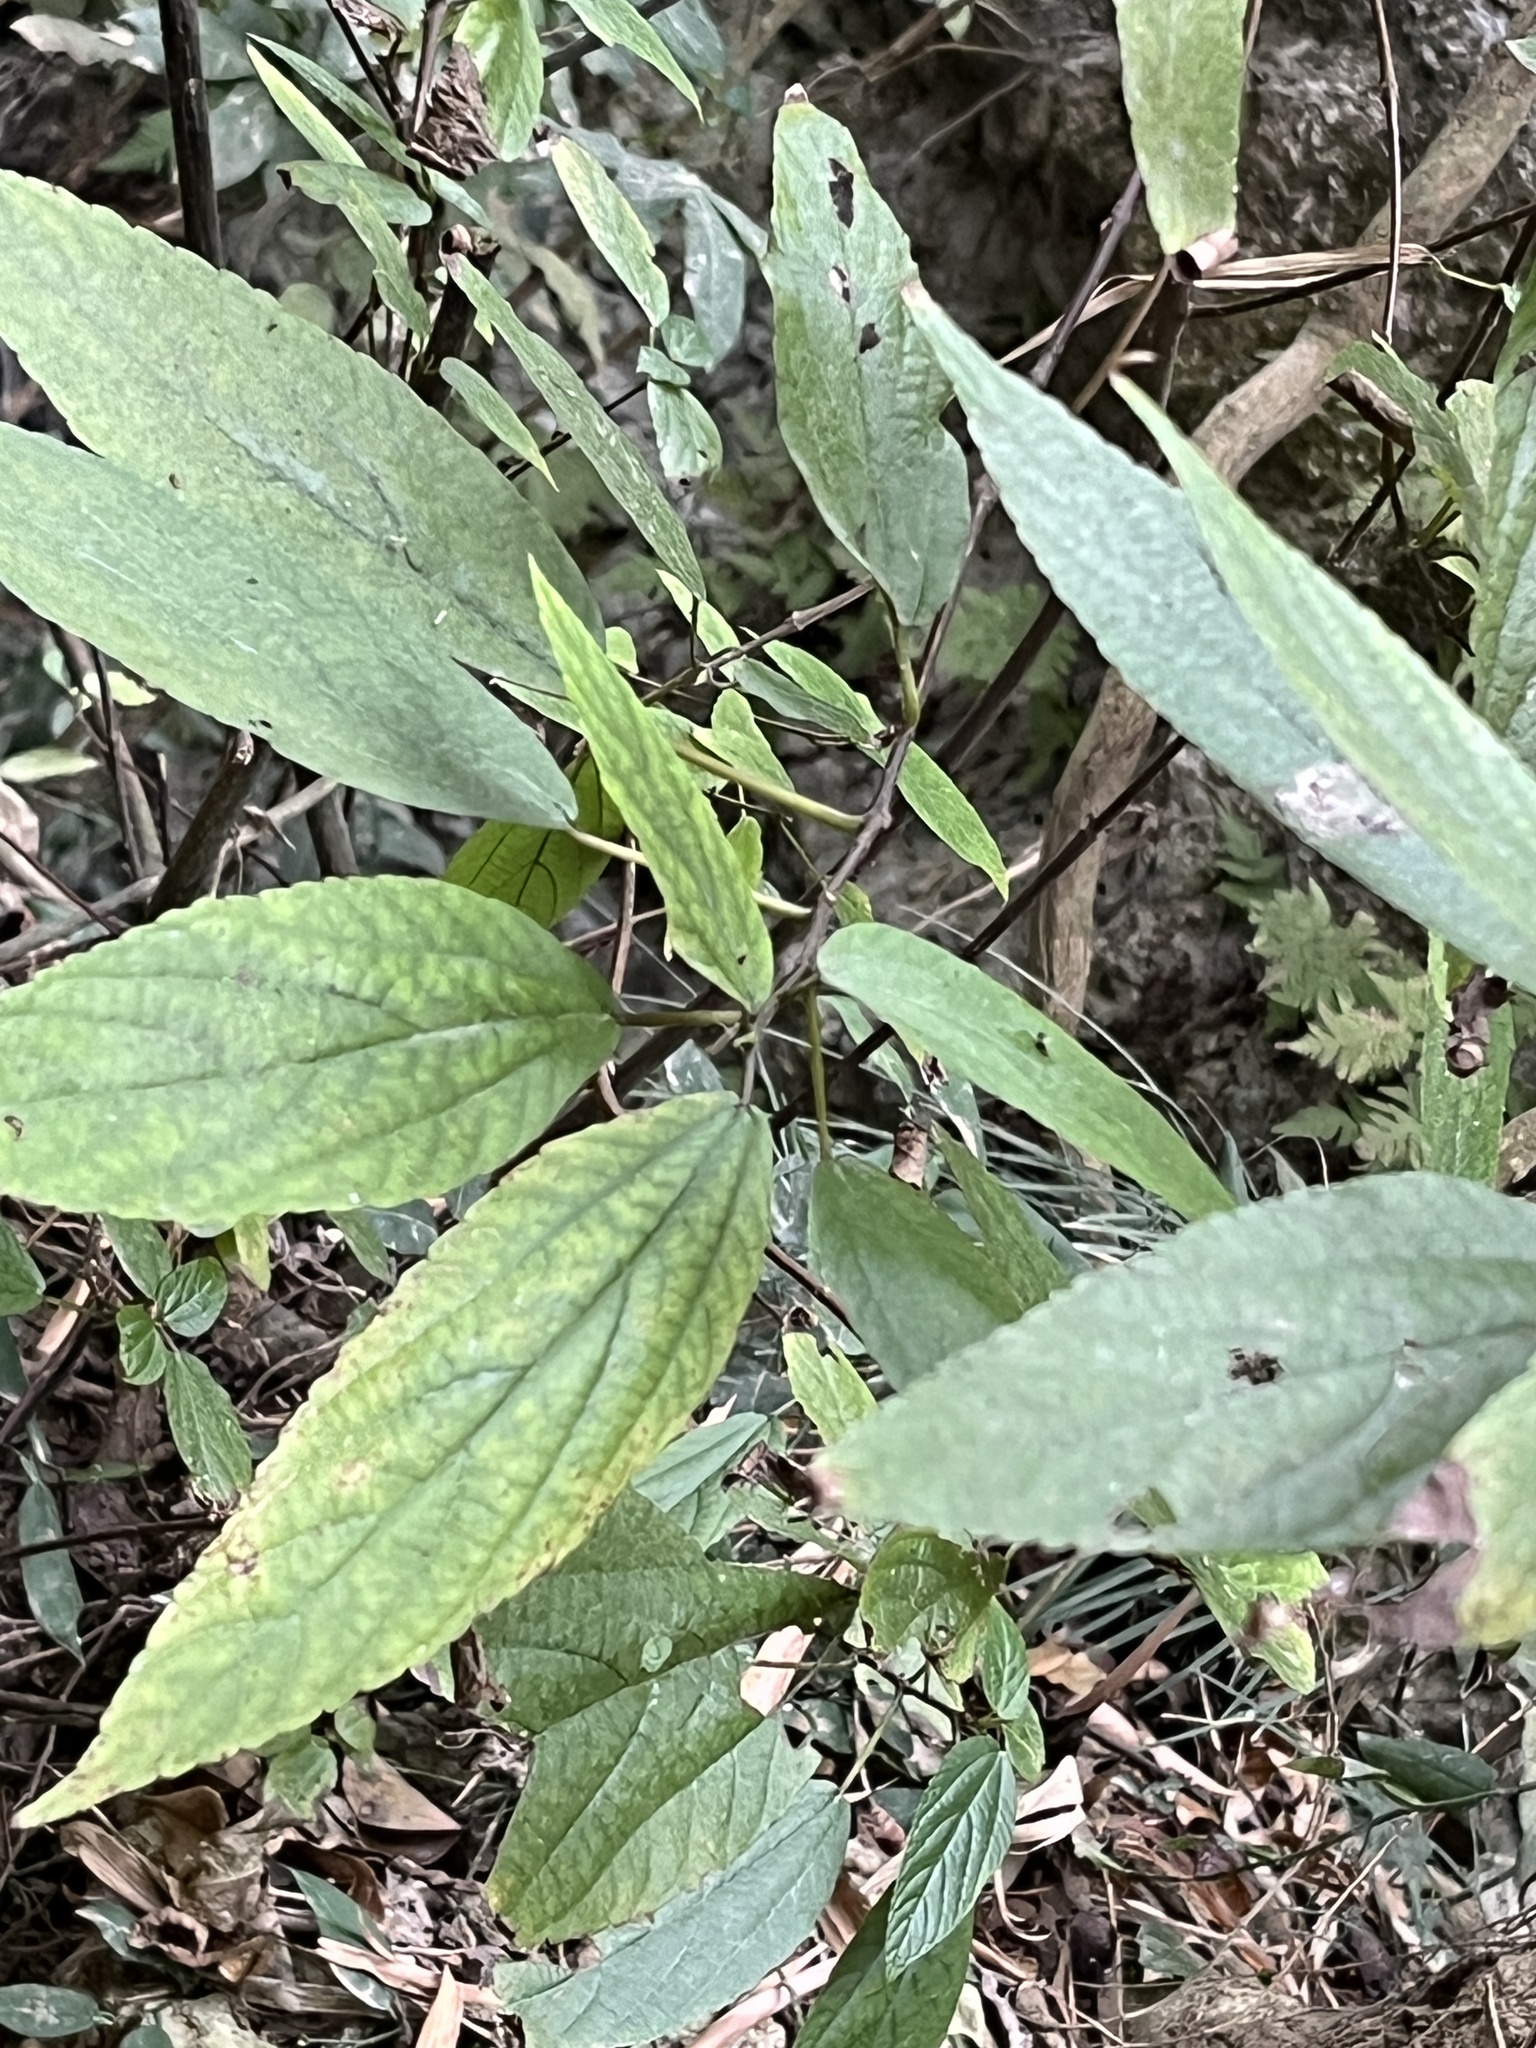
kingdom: Plantae
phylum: Tracheophyta
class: Magnoliopsida
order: Rosales
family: Urticaceae
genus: Boehmeria
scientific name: Boehmeria zollingeriana
